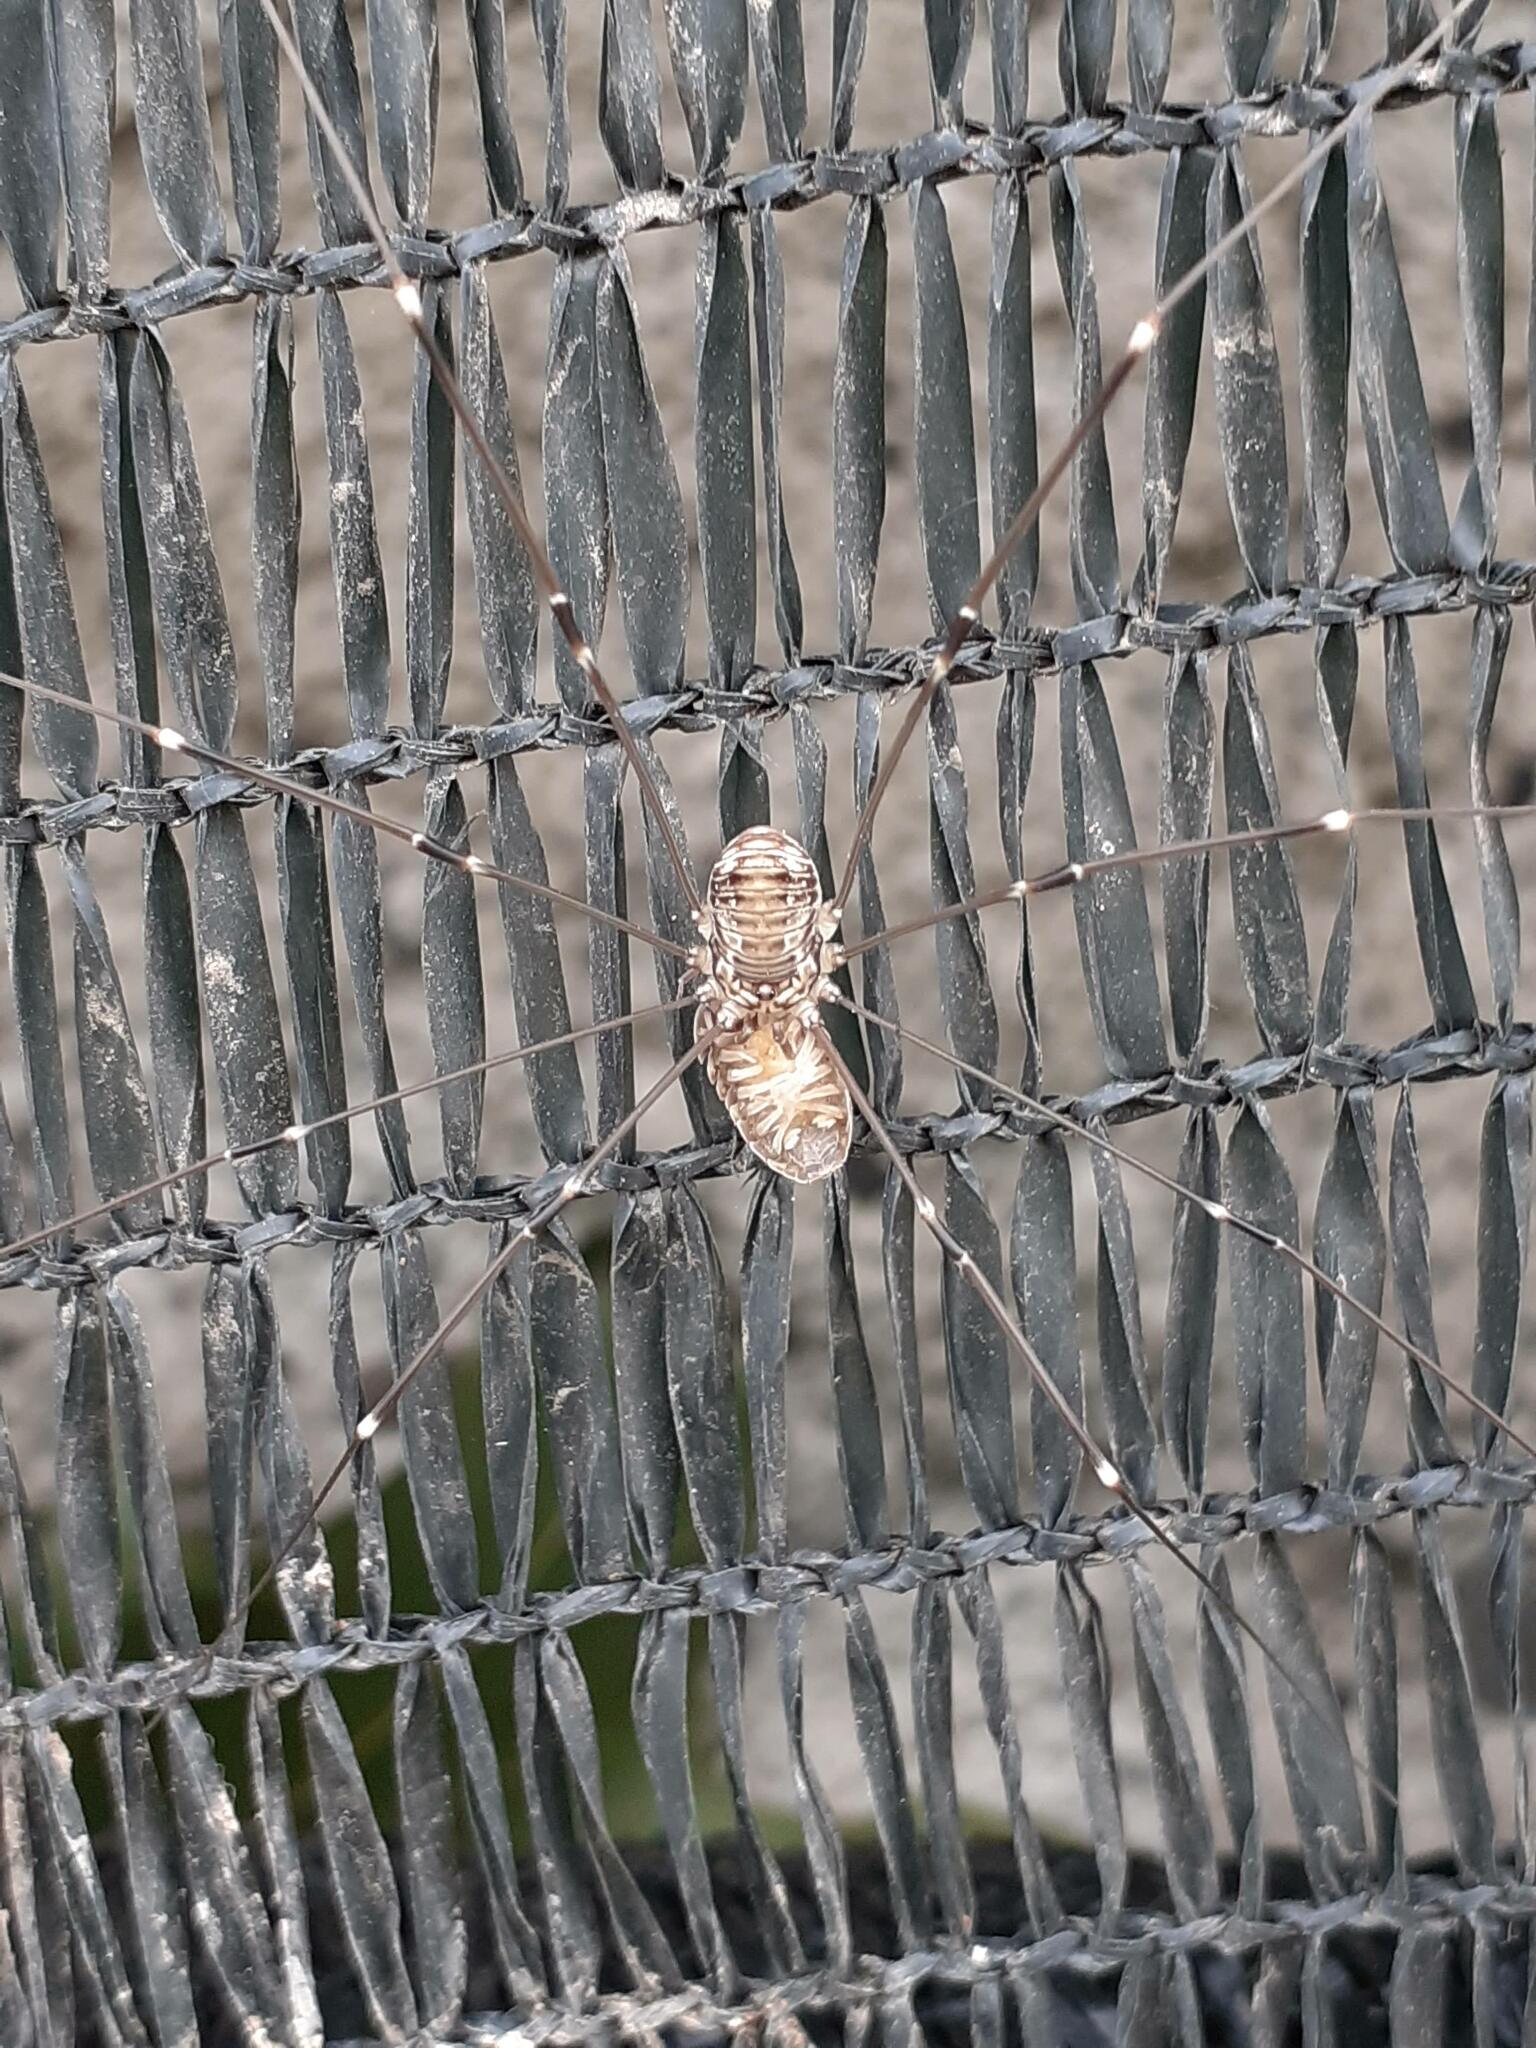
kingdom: Animalia
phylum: Arthropoda
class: Arachnida
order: Opiliones
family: Sclerosomatidae
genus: Leiobunum
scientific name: Leiobunum limbatum
